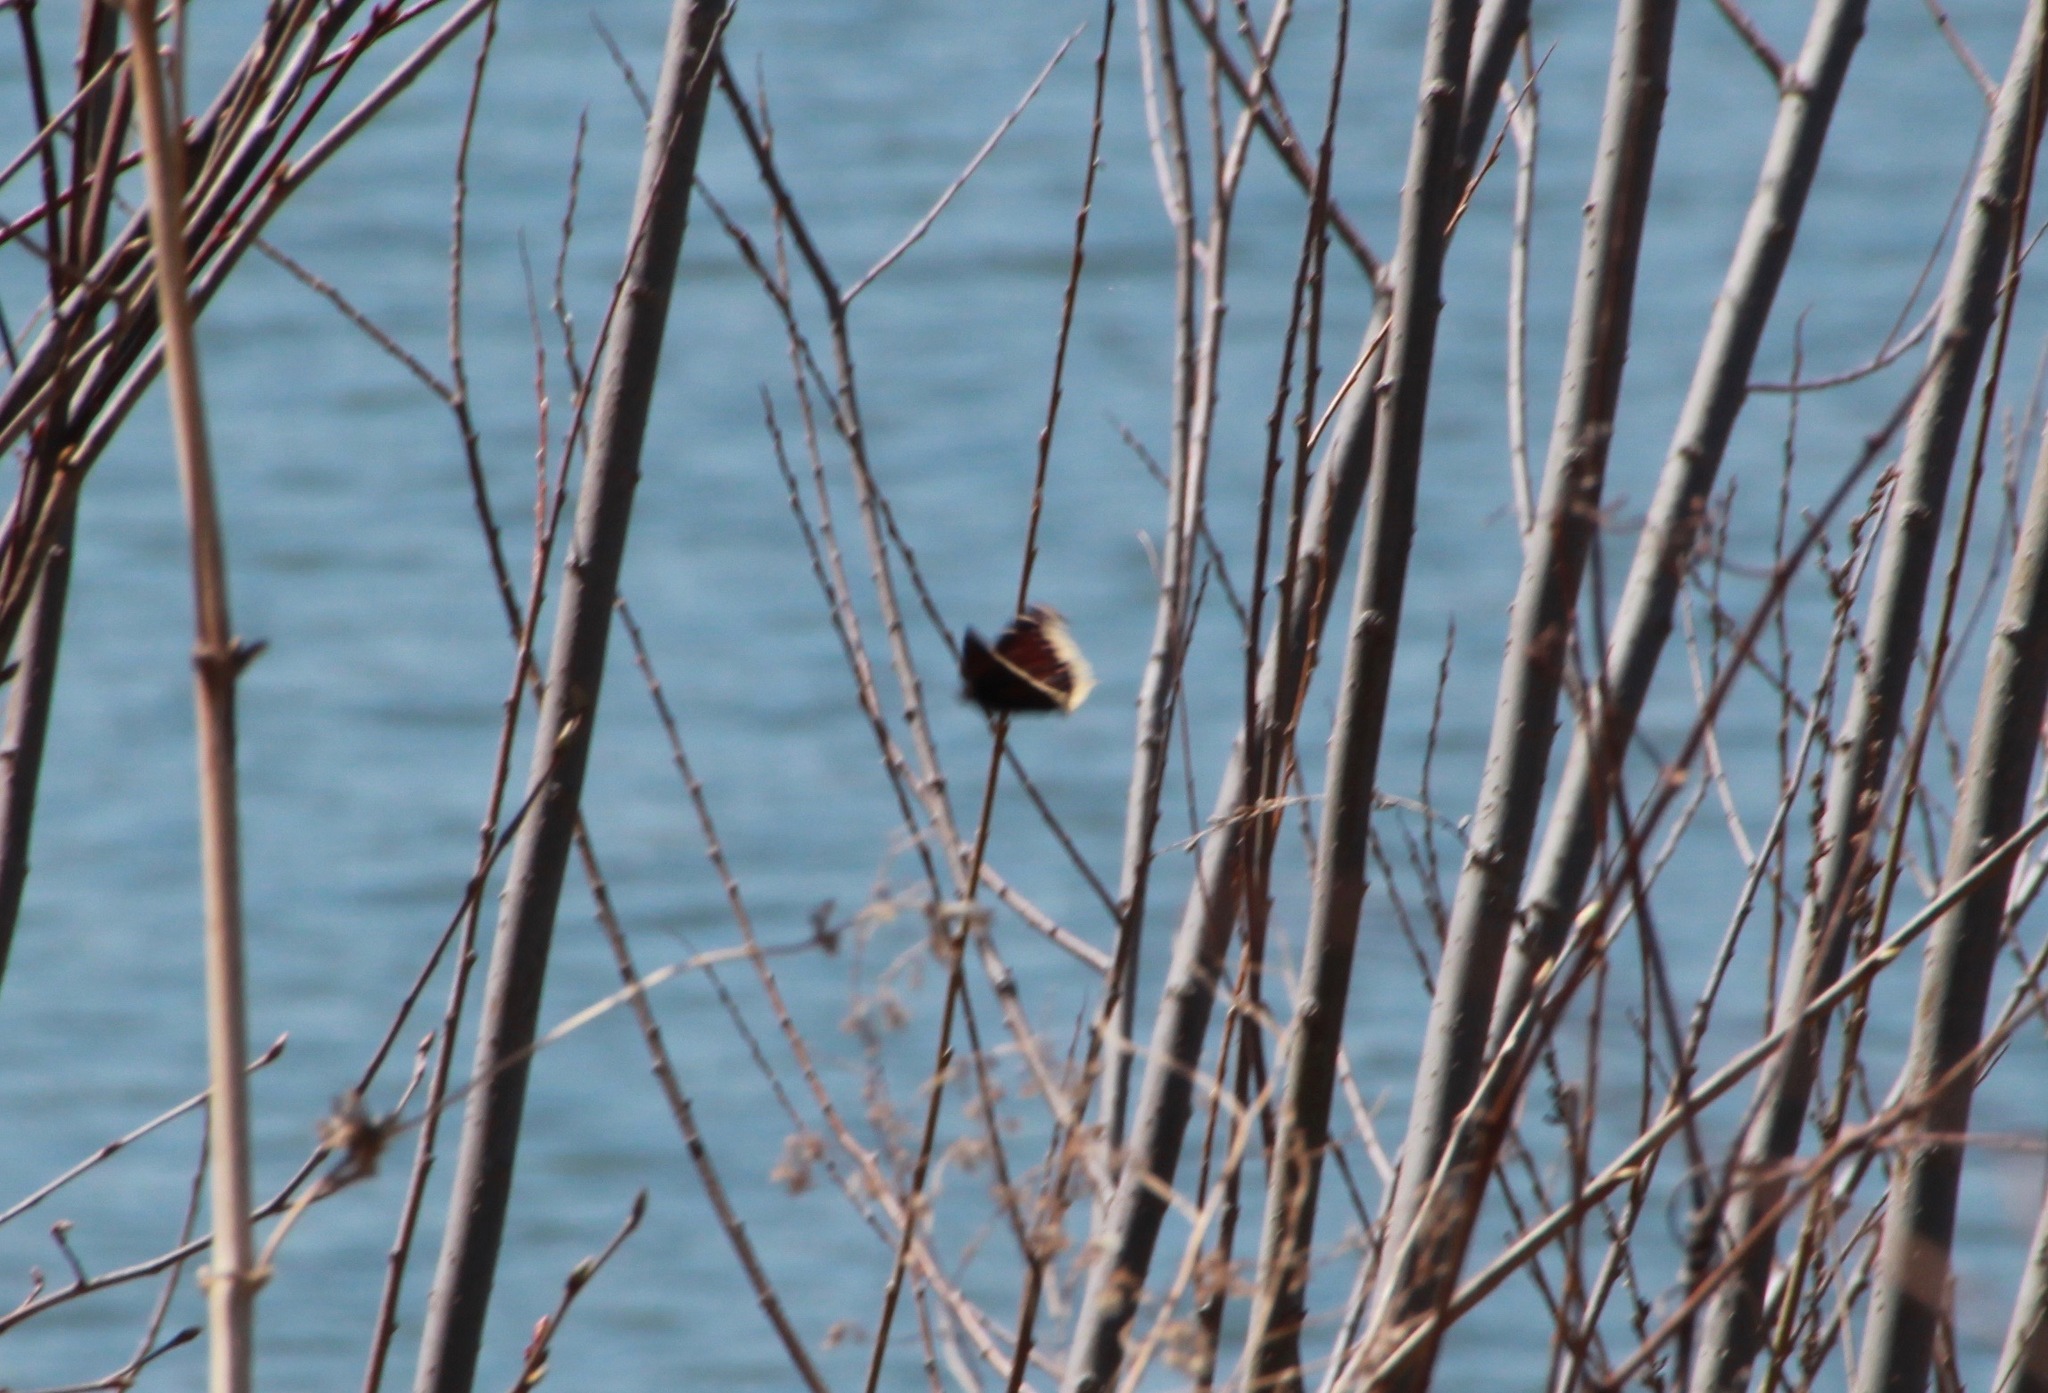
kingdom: Animalia
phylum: Arthropoda
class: Insecta
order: Lepidoptera
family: Nymphalidae
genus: Nymphalis
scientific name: Nymphalis antiopa
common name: Camberwell beauty
